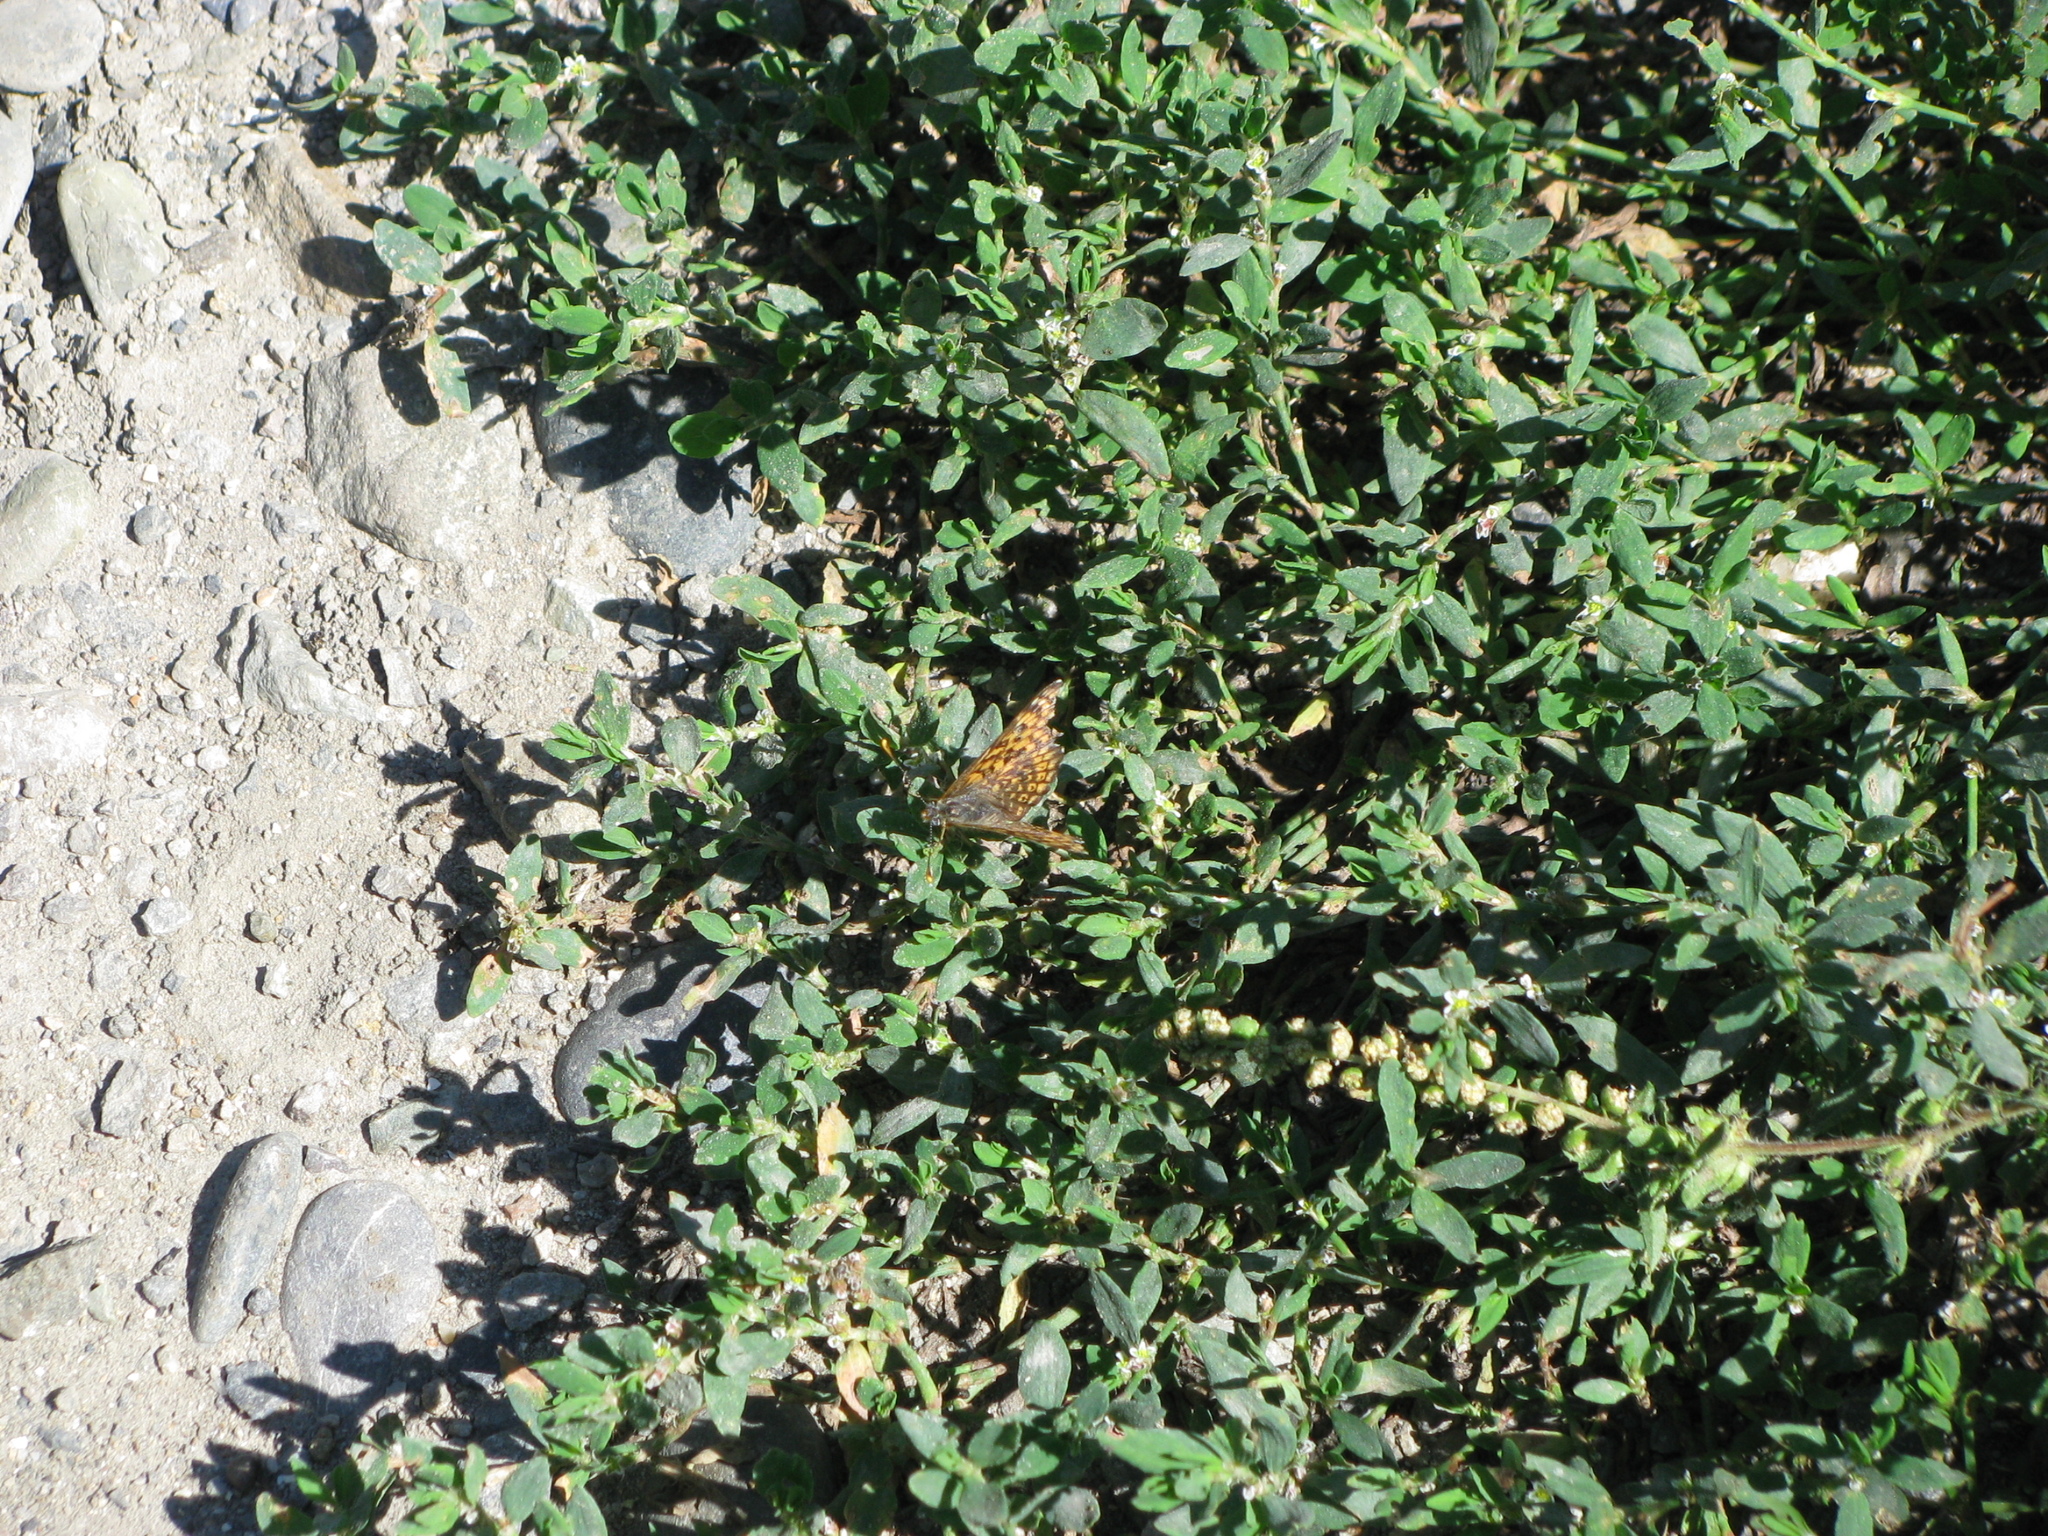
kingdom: Animalia
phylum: Arthropoda
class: Insecta
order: Lepidoptera
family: Nymphalidae
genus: Melitaea
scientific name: Melitaea cinxia
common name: Glanville fritillary
